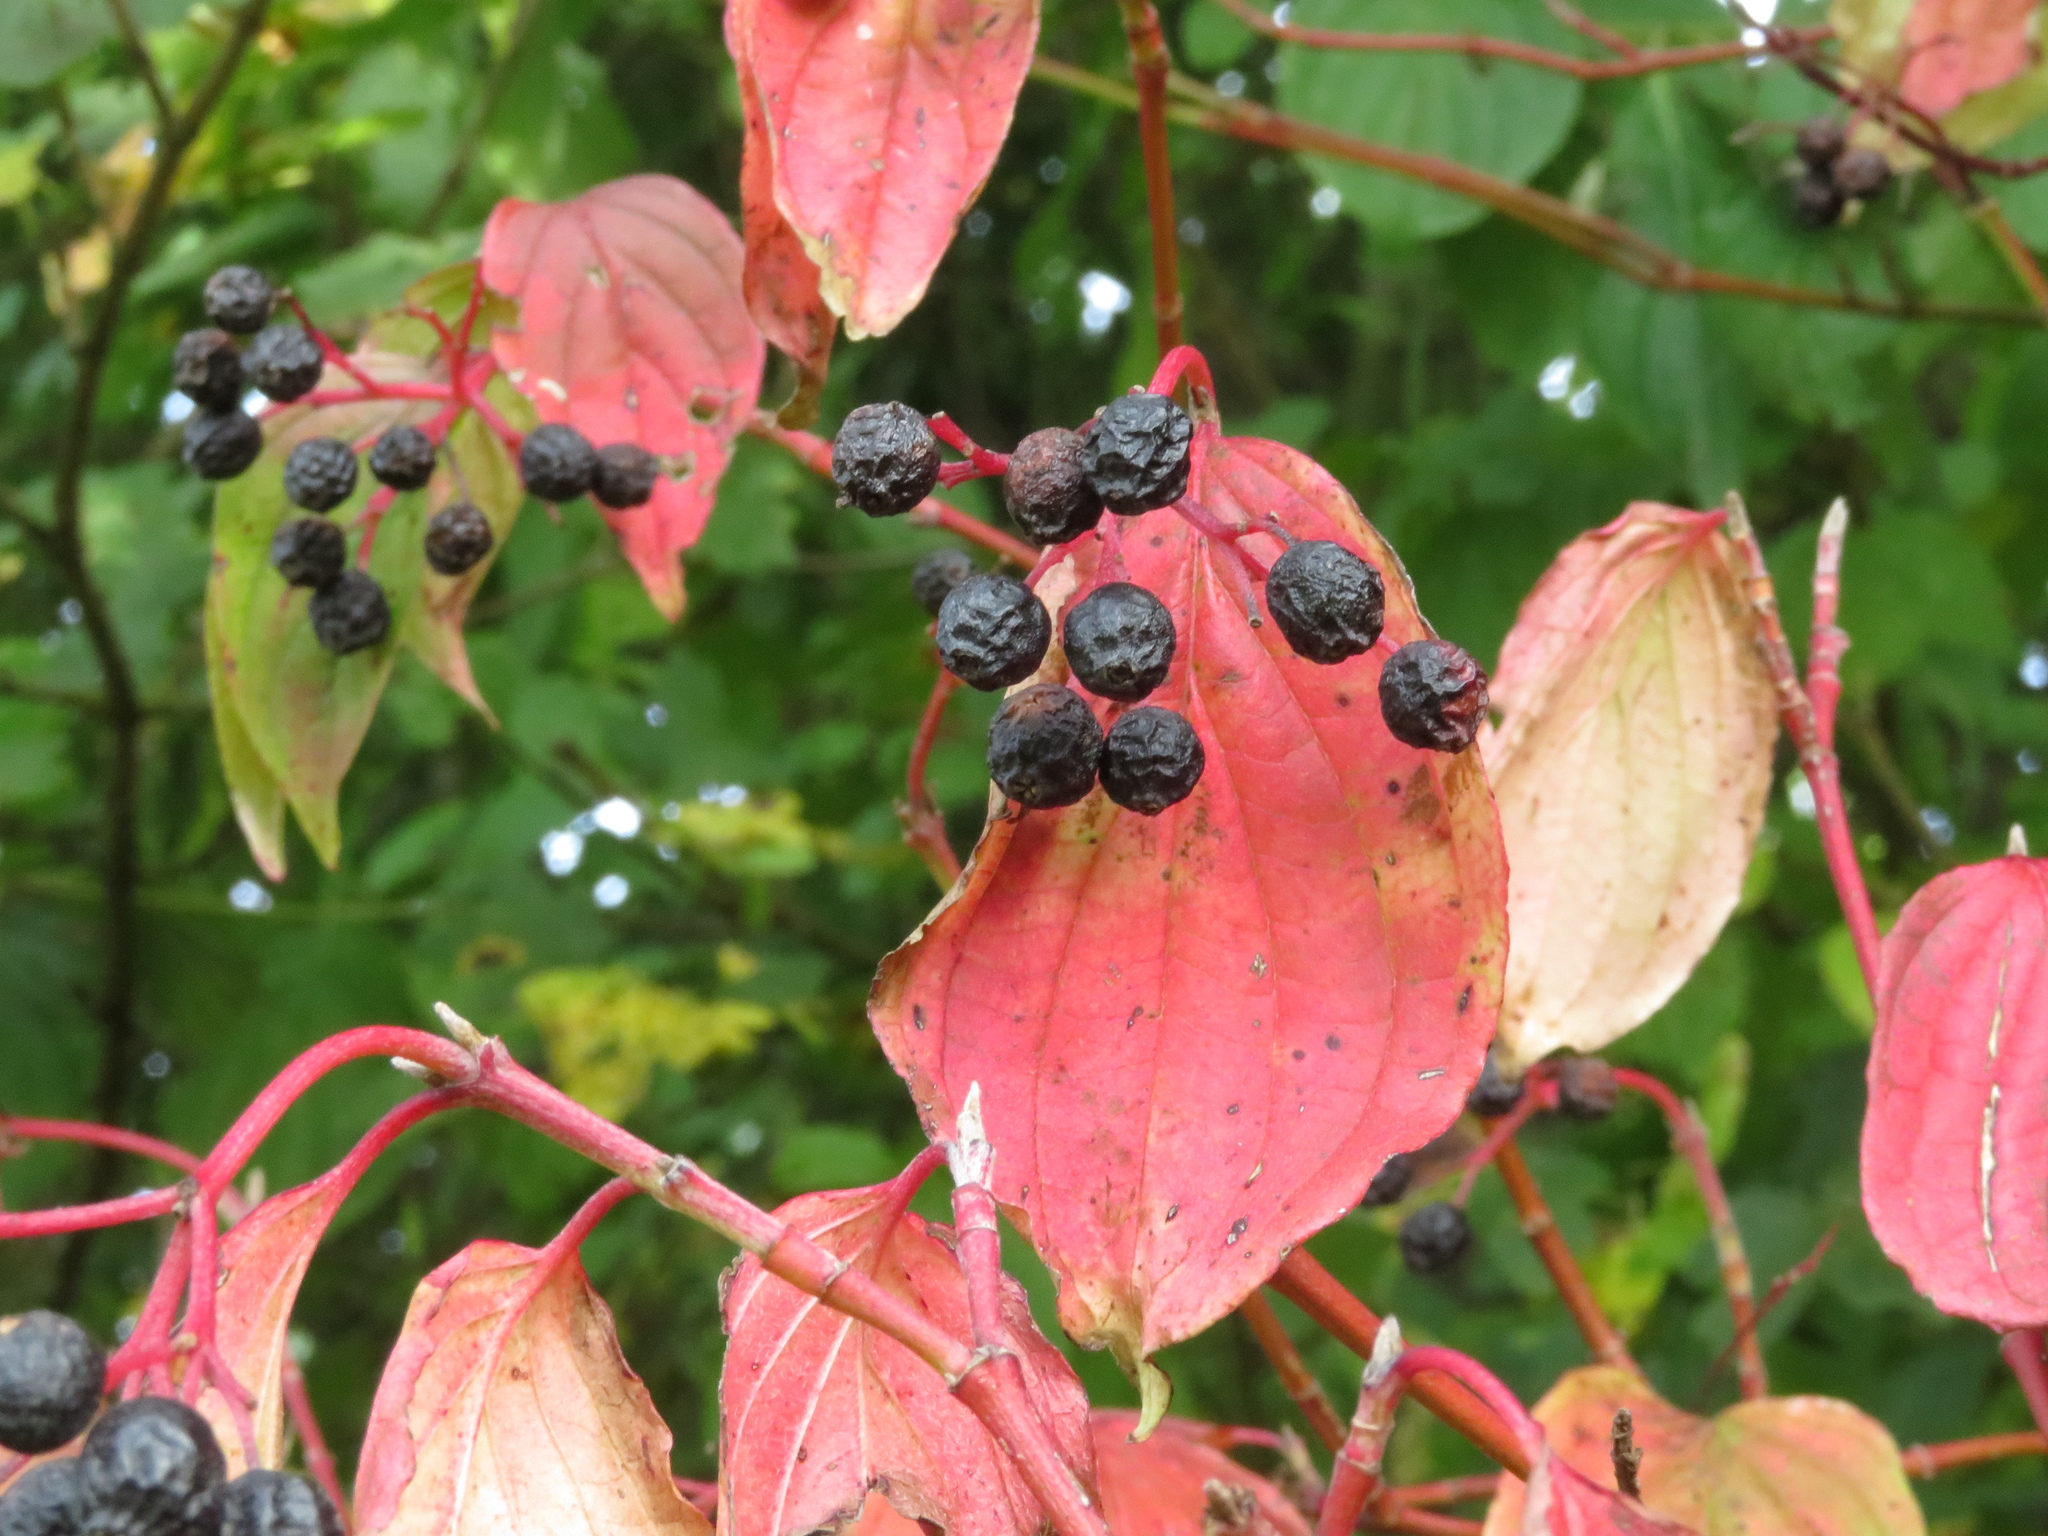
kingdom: Plantae
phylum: Tracheophyta
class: Magnoliopsida
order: Cornales
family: Cornaceae
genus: Cornus
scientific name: Cornus sanguinea
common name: Dogwood
